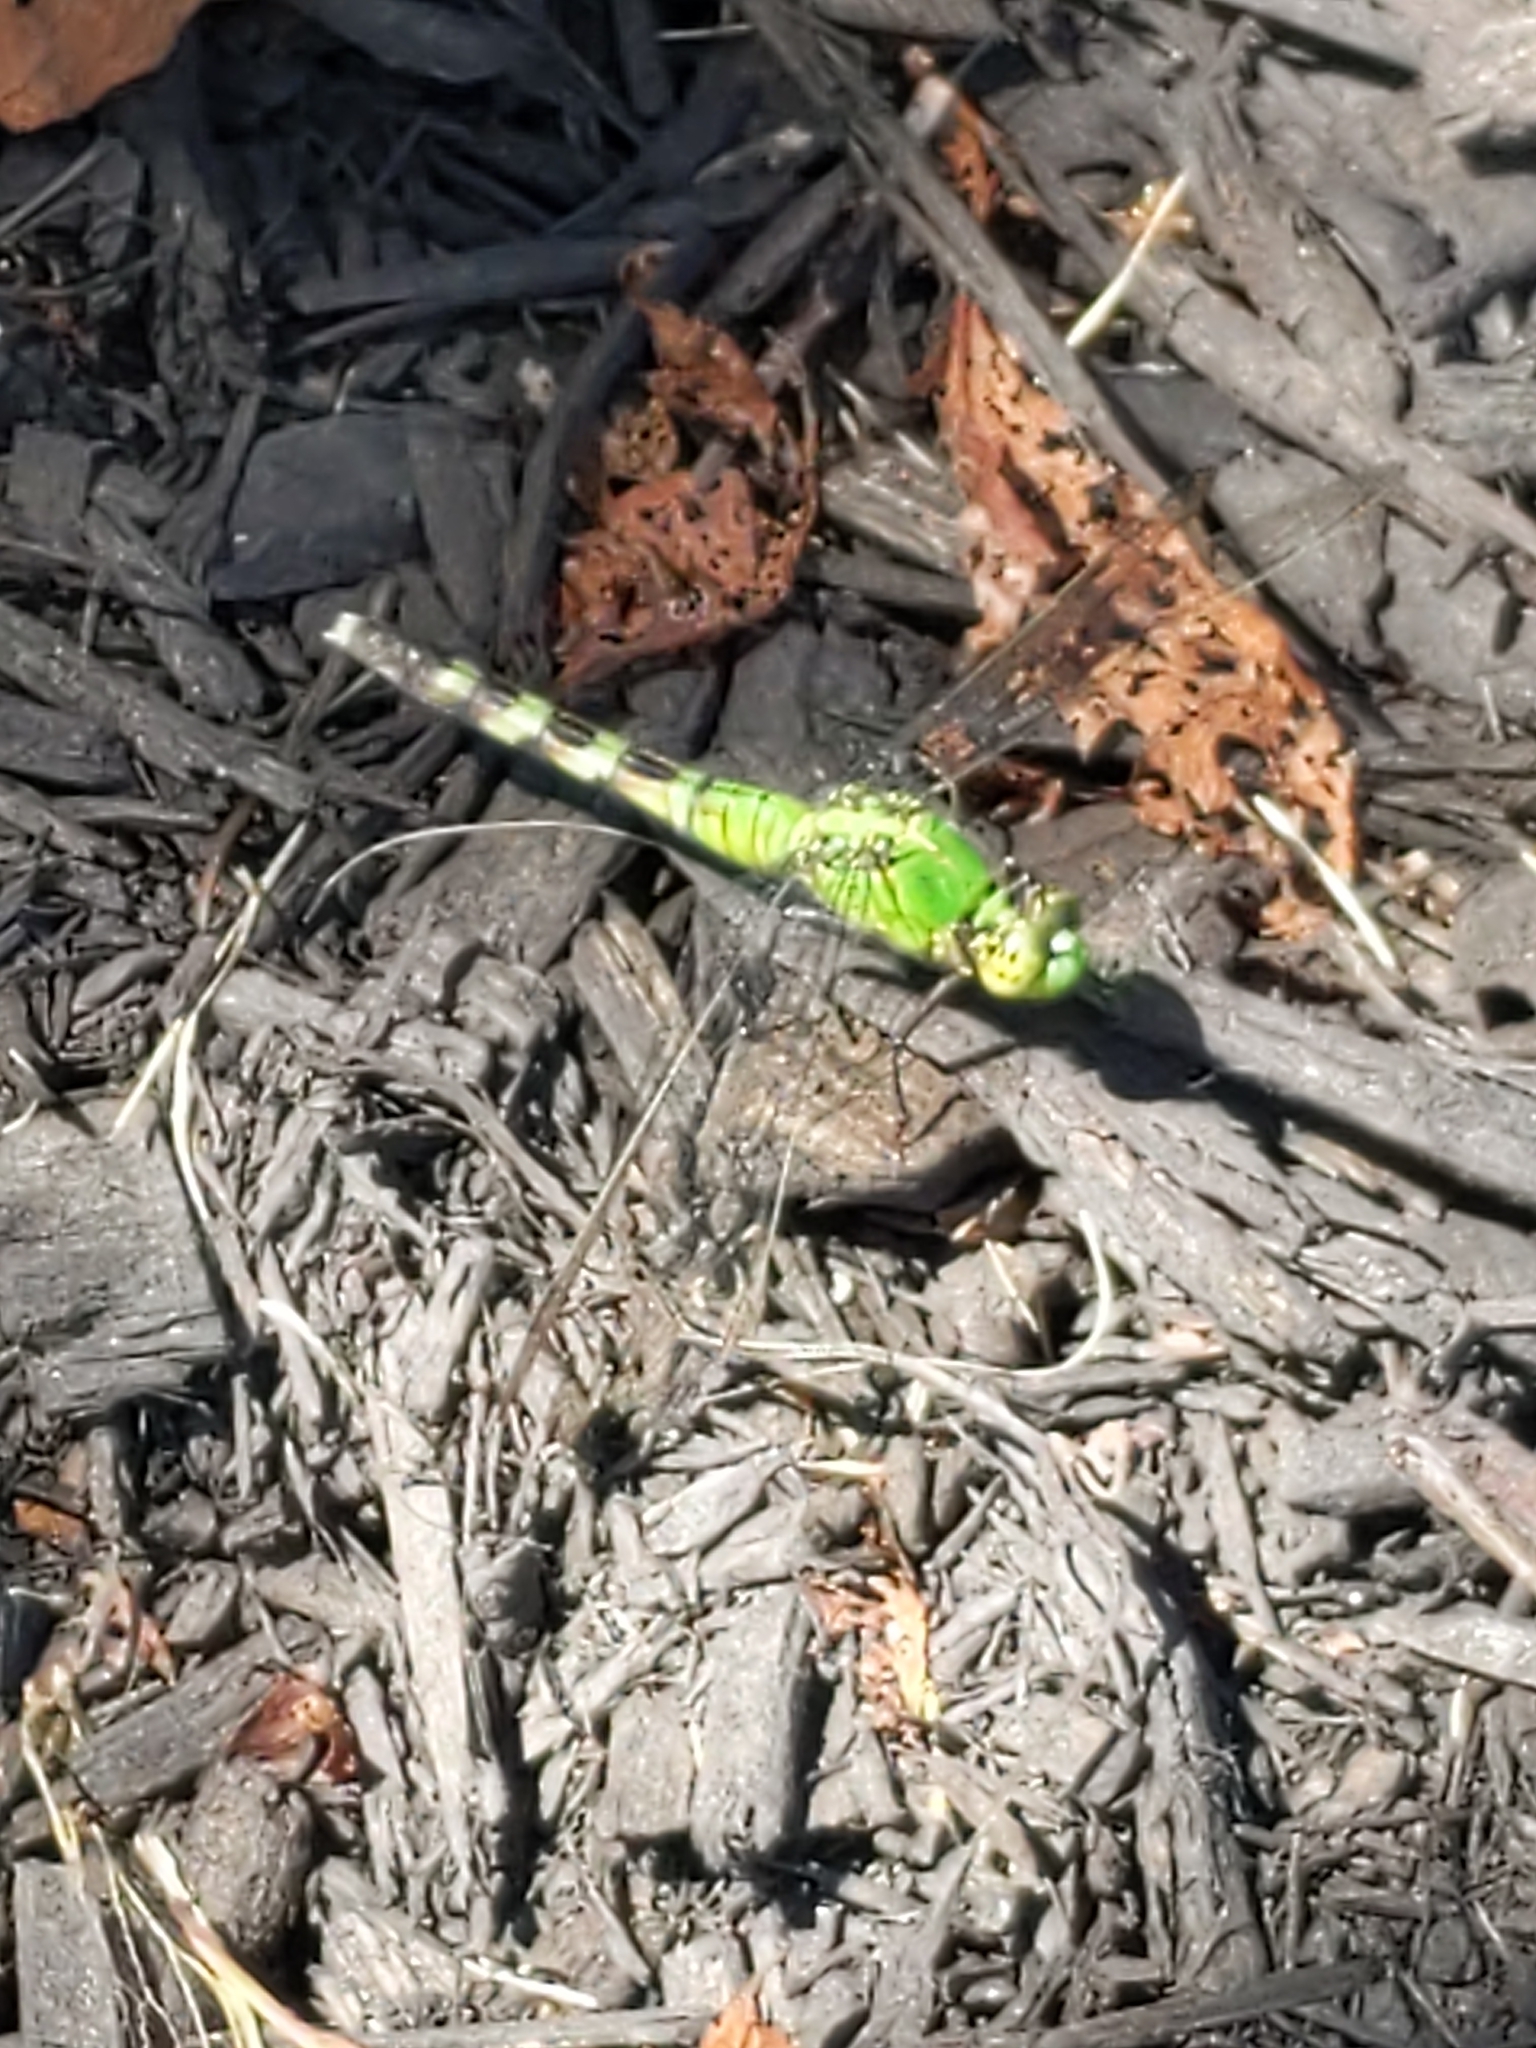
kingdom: Animalia
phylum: Arthropoda
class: Insecta
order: Odonata
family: Libellulidae
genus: Erythemis
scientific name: Erythemis simplicicollis
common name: Eastern pondhawk
